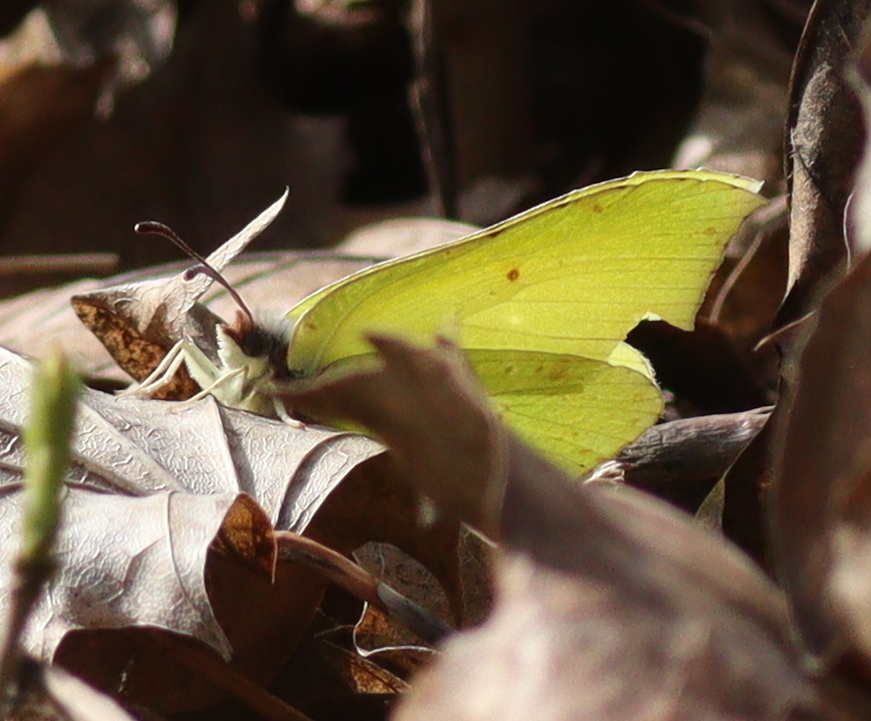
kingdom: Animalia
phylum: Arthropoda
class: Insecta
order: Lepidoptera
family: Pieridae
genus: Gonepteryx
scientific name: Gonepteryx rhamni
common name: Brimstone
